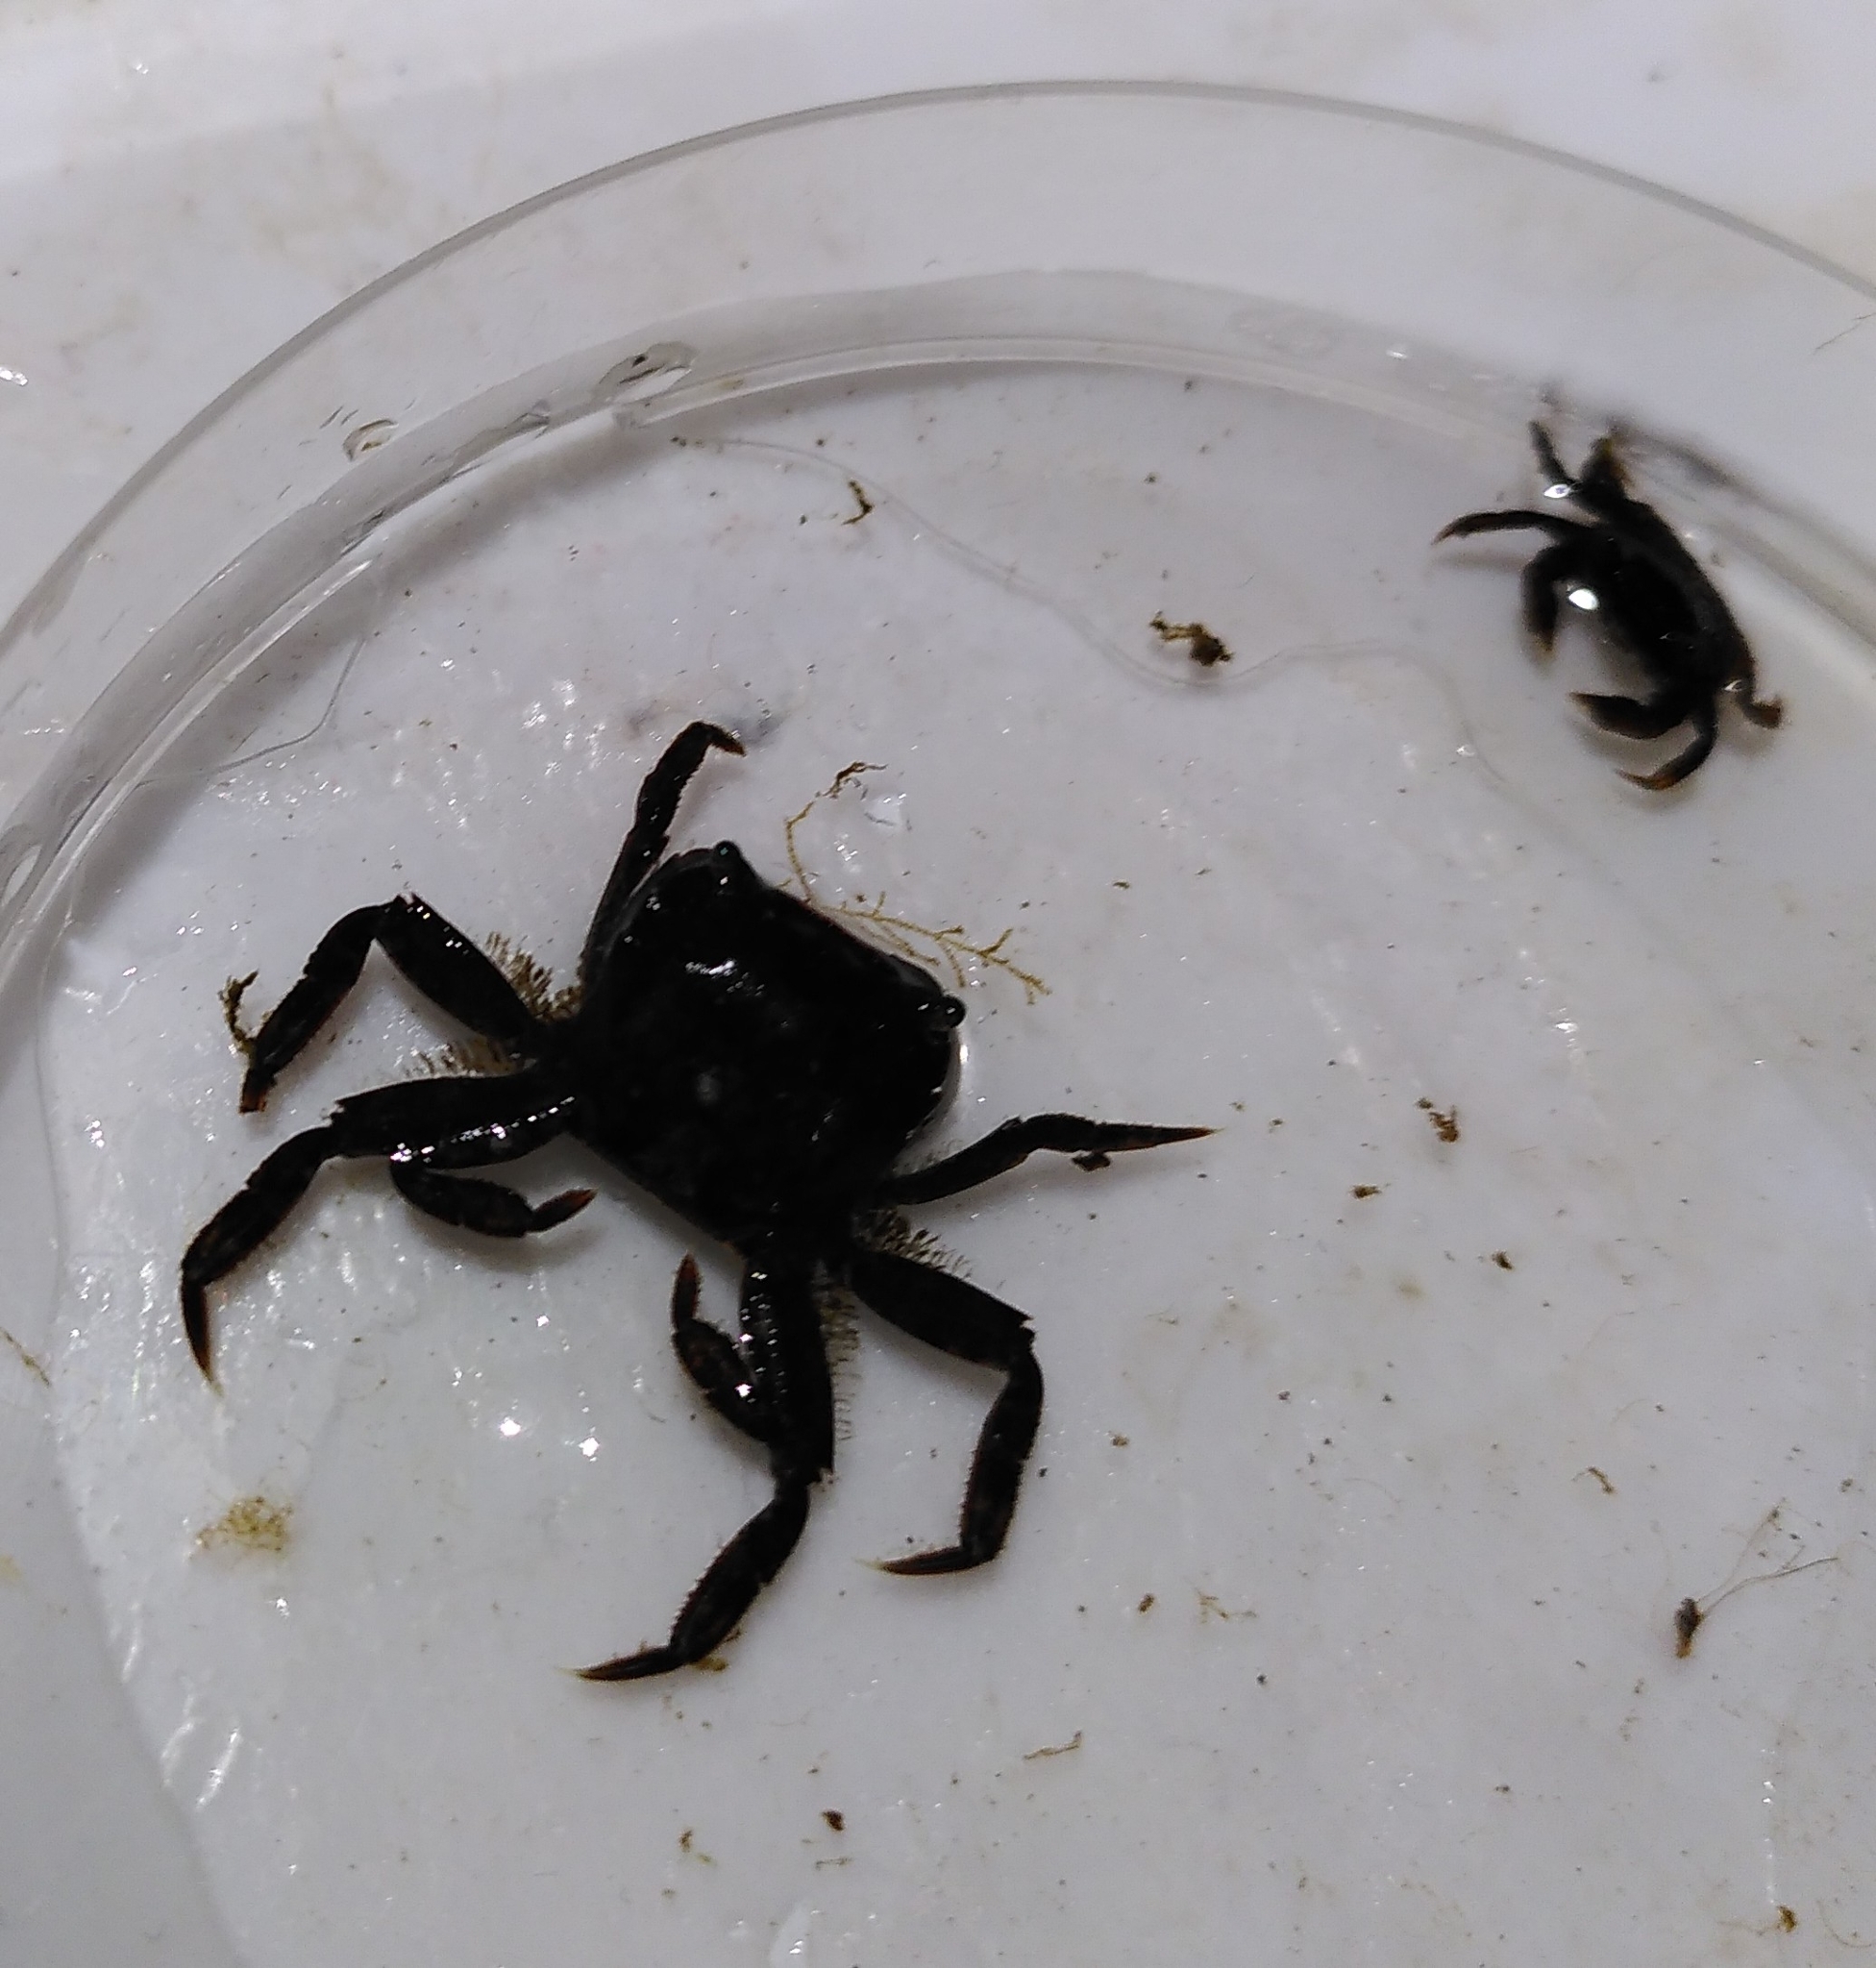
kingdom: Animalia
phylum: Arthropoda
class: Malacostraca
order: Decapoda
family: Varunidae
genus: Hemigrapsus
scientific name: Hemigrapsus takanoi
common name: Asian brush crab
